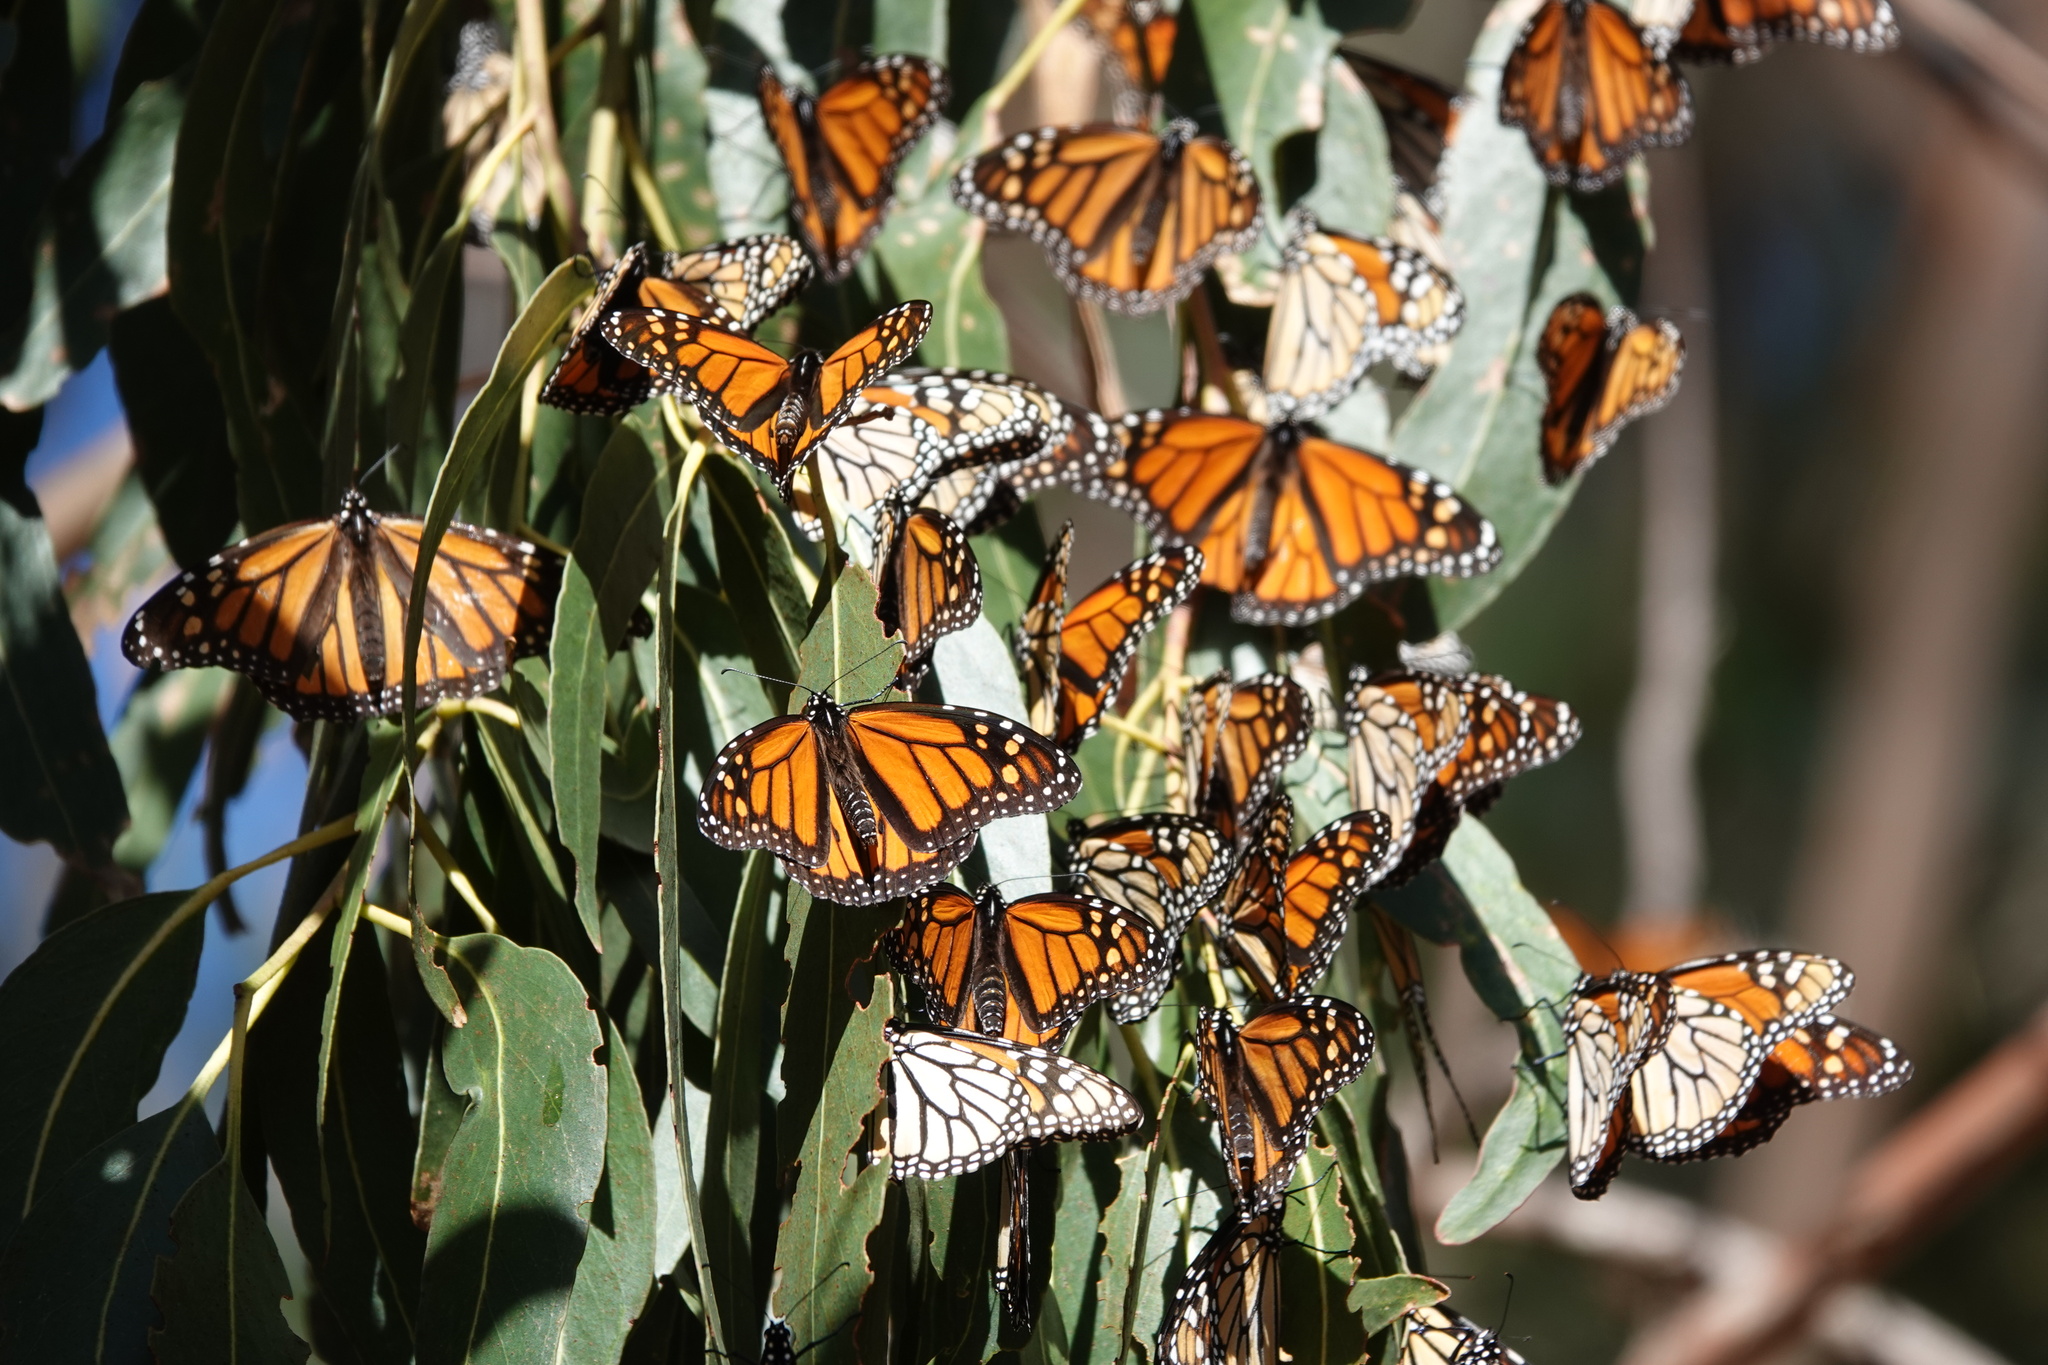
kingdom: Animalia
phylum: Arthropoda
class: Insecta
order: Lepidoptera
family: Nymphalidae
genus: Danaus
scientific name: Danaus plexippus
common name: Monarch
